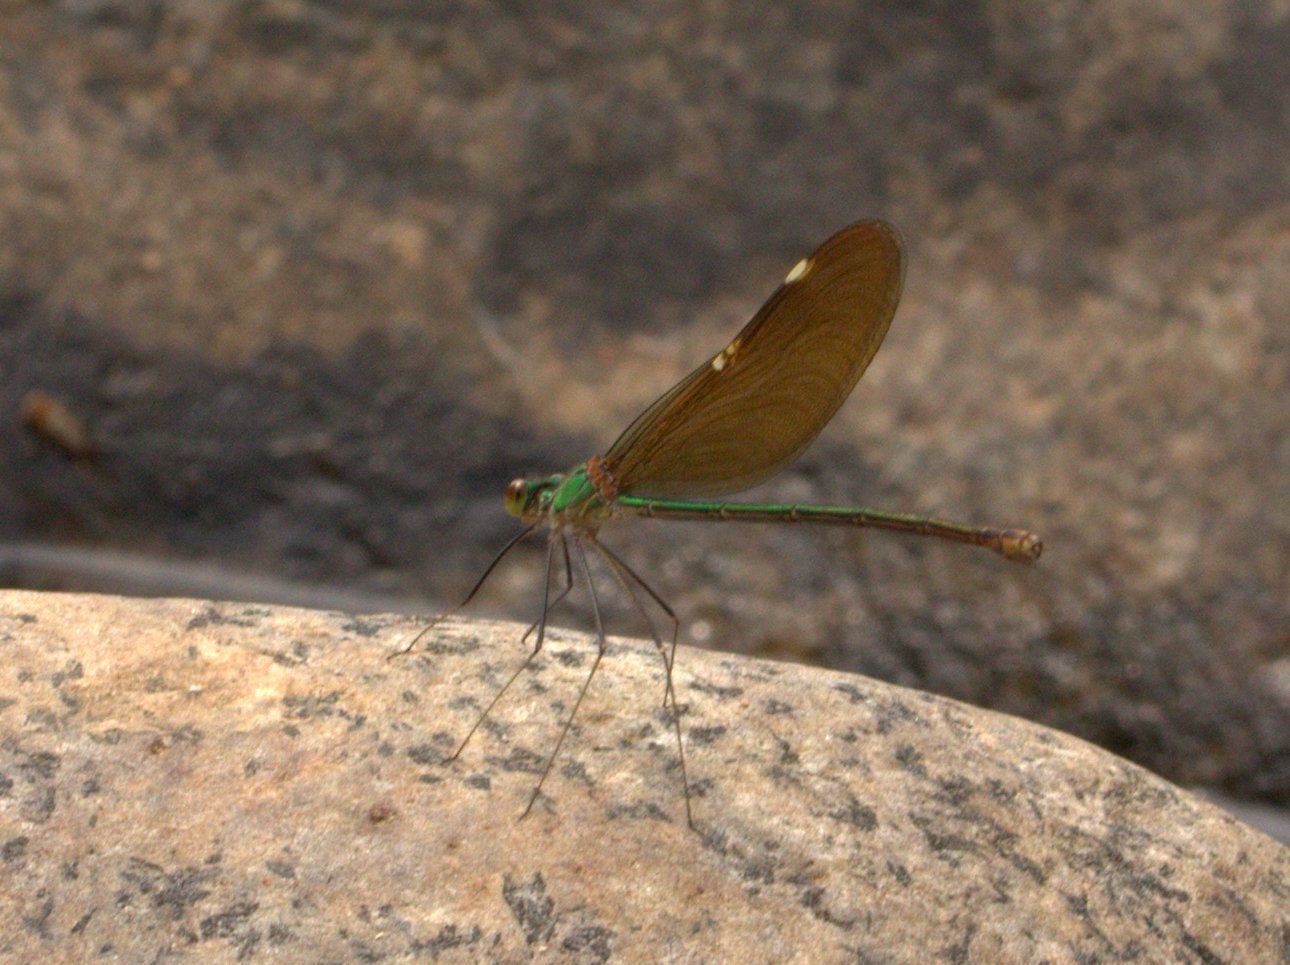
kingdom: Animalia
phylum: Arthropoda
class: Insecta
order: Odonata
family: Calopterygidae
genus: Neurobasis
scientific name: Neurobasis chinensis
